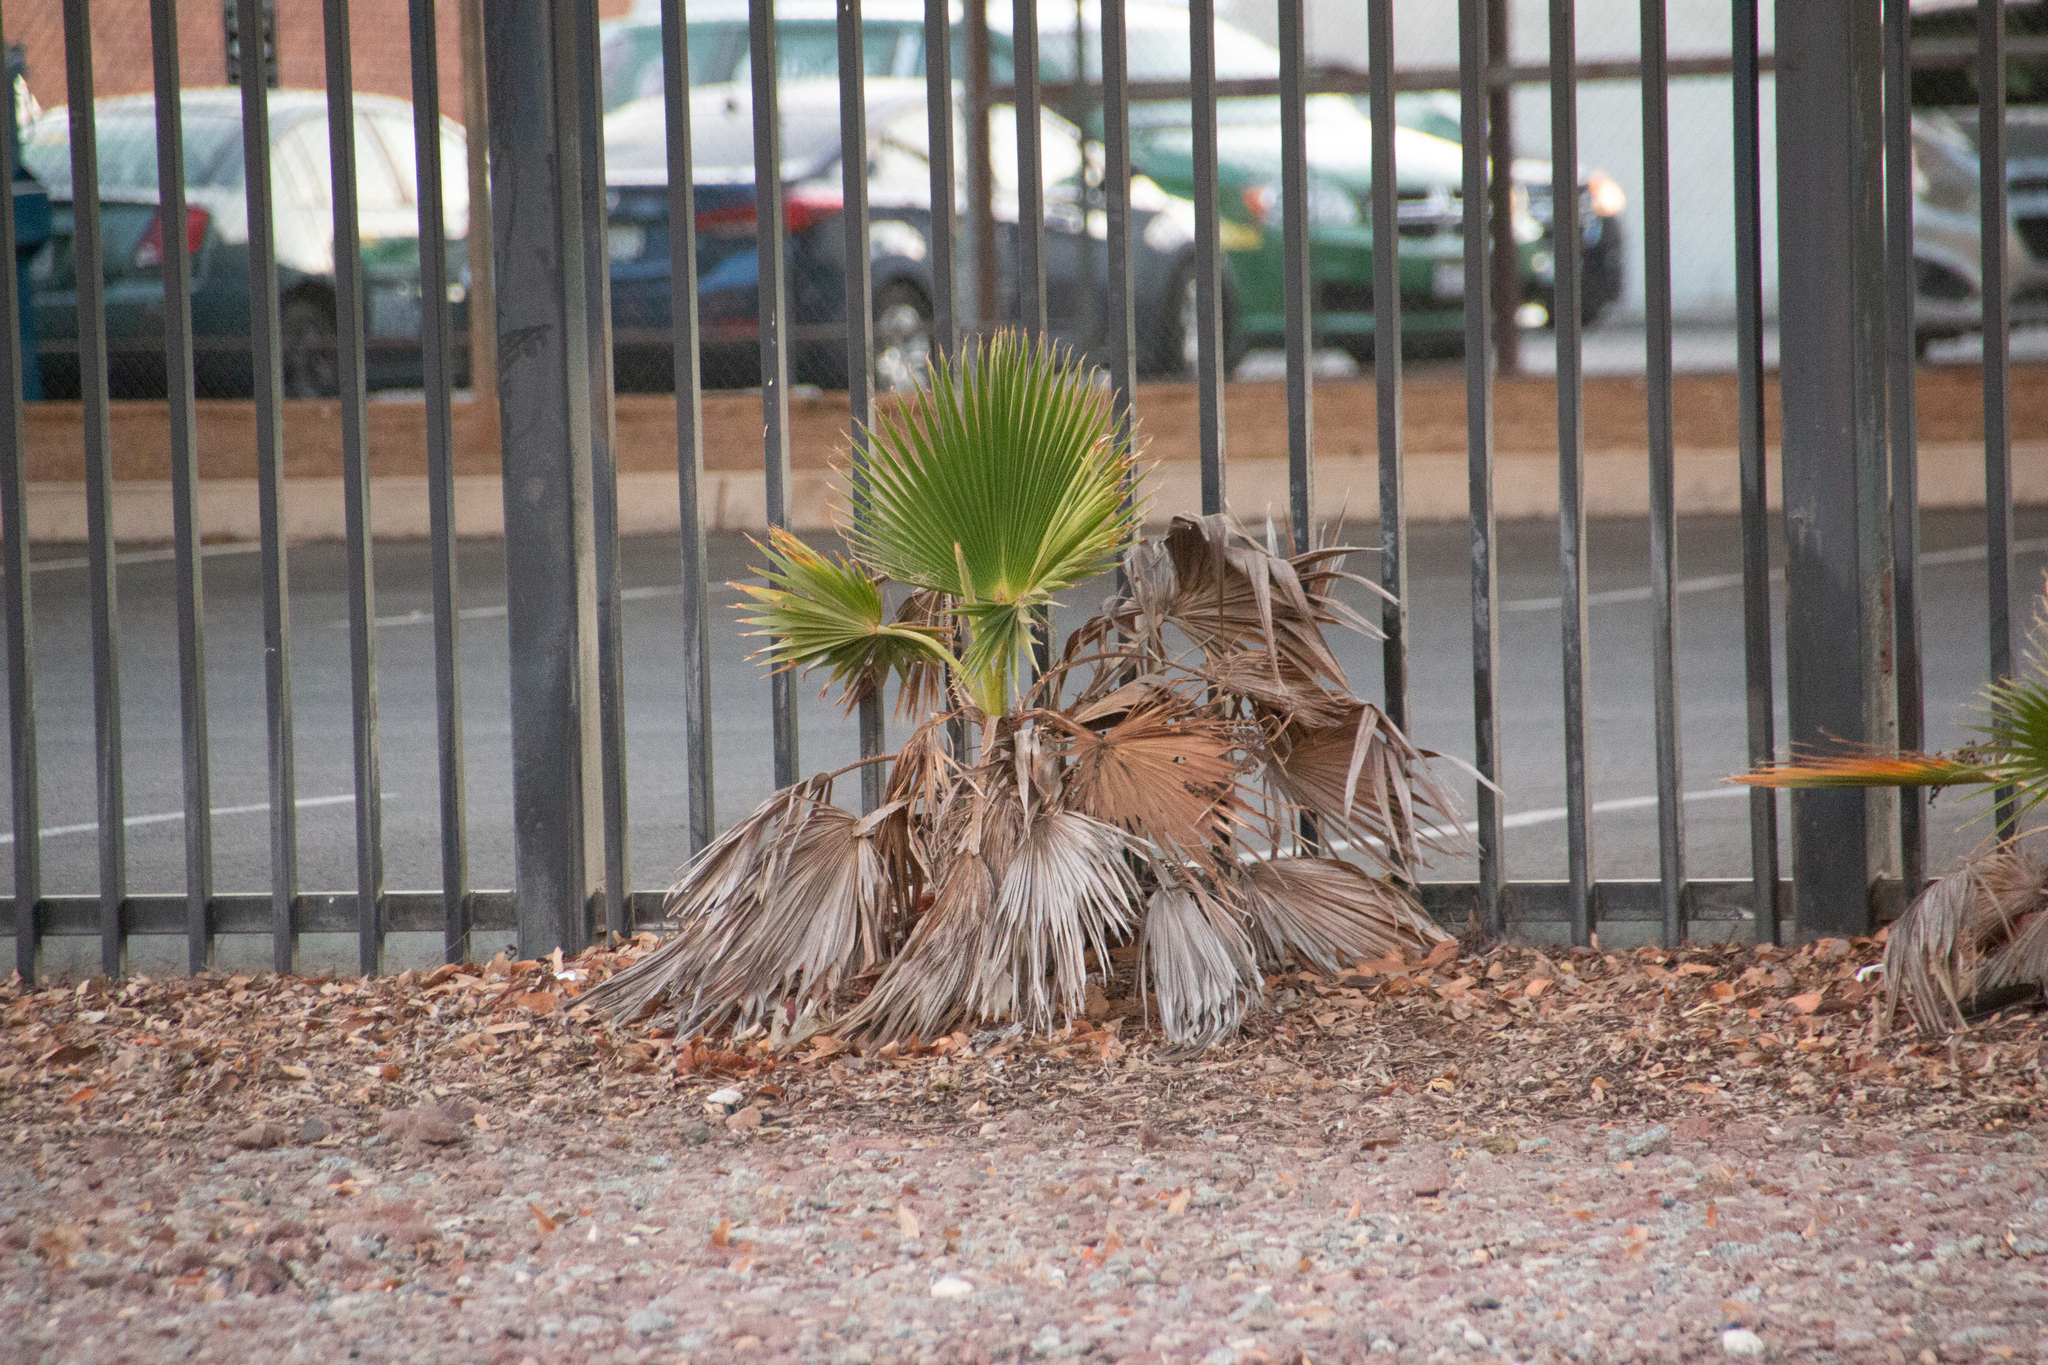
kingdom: Plantae
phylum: Tracheophyta
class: Liliopsida
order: Arecales
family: Arecaceae
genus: Washingtonia
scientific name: Washingtonia robusta
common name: Mexican fan palm
